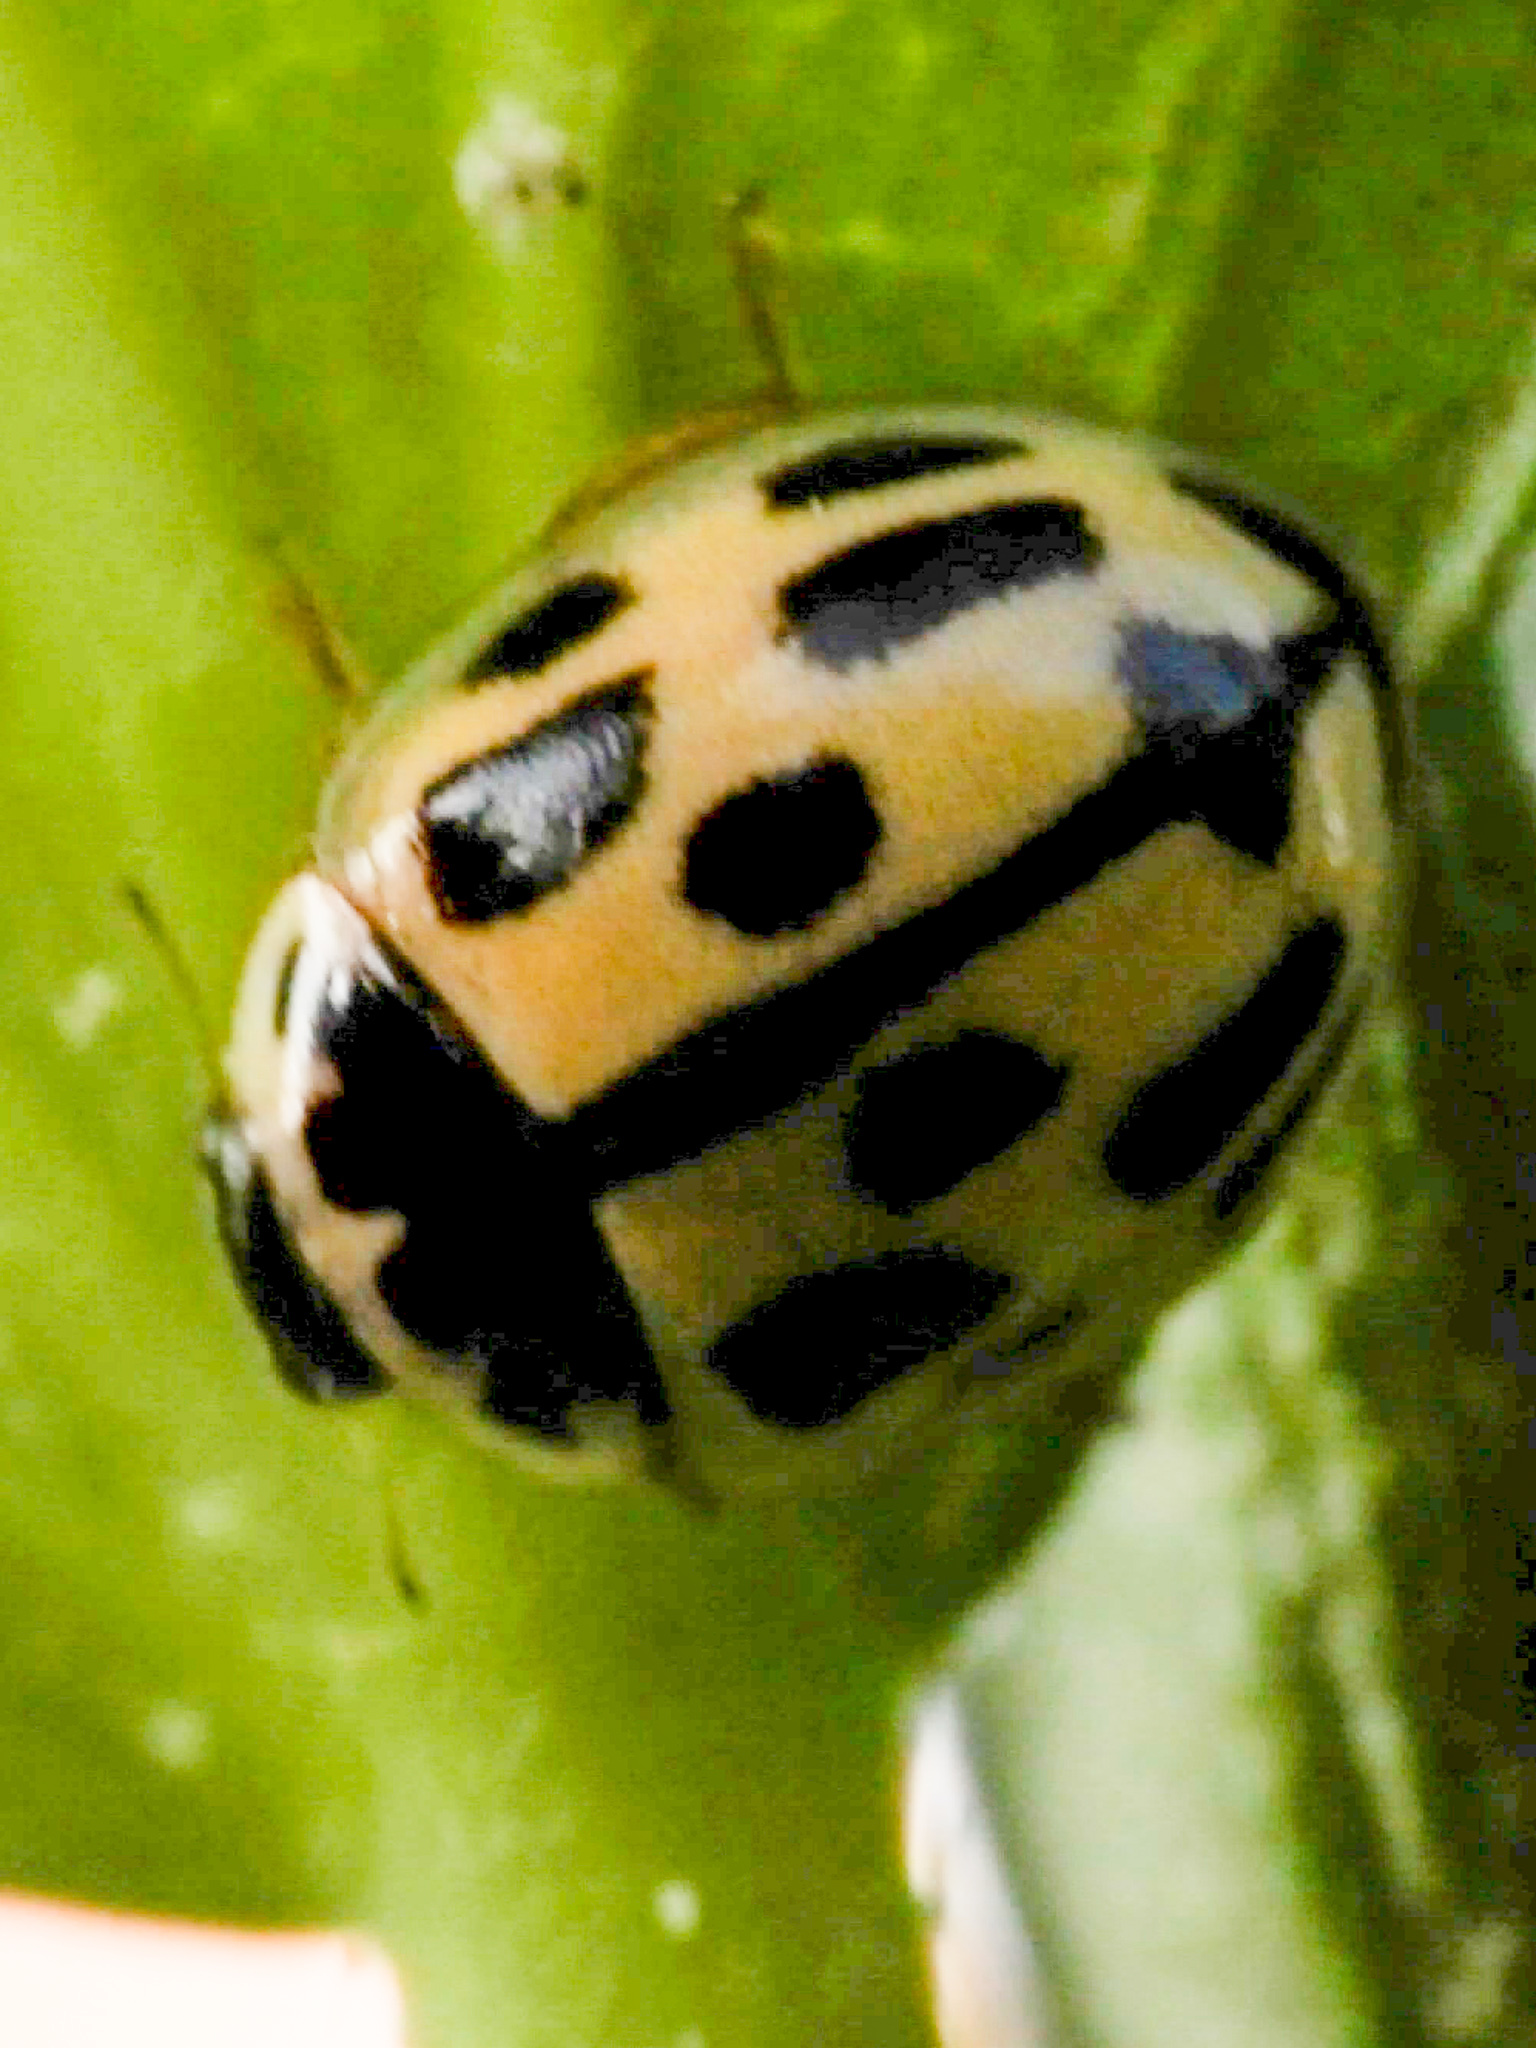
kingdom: Animalia
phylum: Arthropoda
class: Insecta
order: Coleoptera
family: Coccinellidae
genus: Propylaea
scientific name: Propylaea quatuordecimpunctata
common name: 14-spotted ladybird beetle
